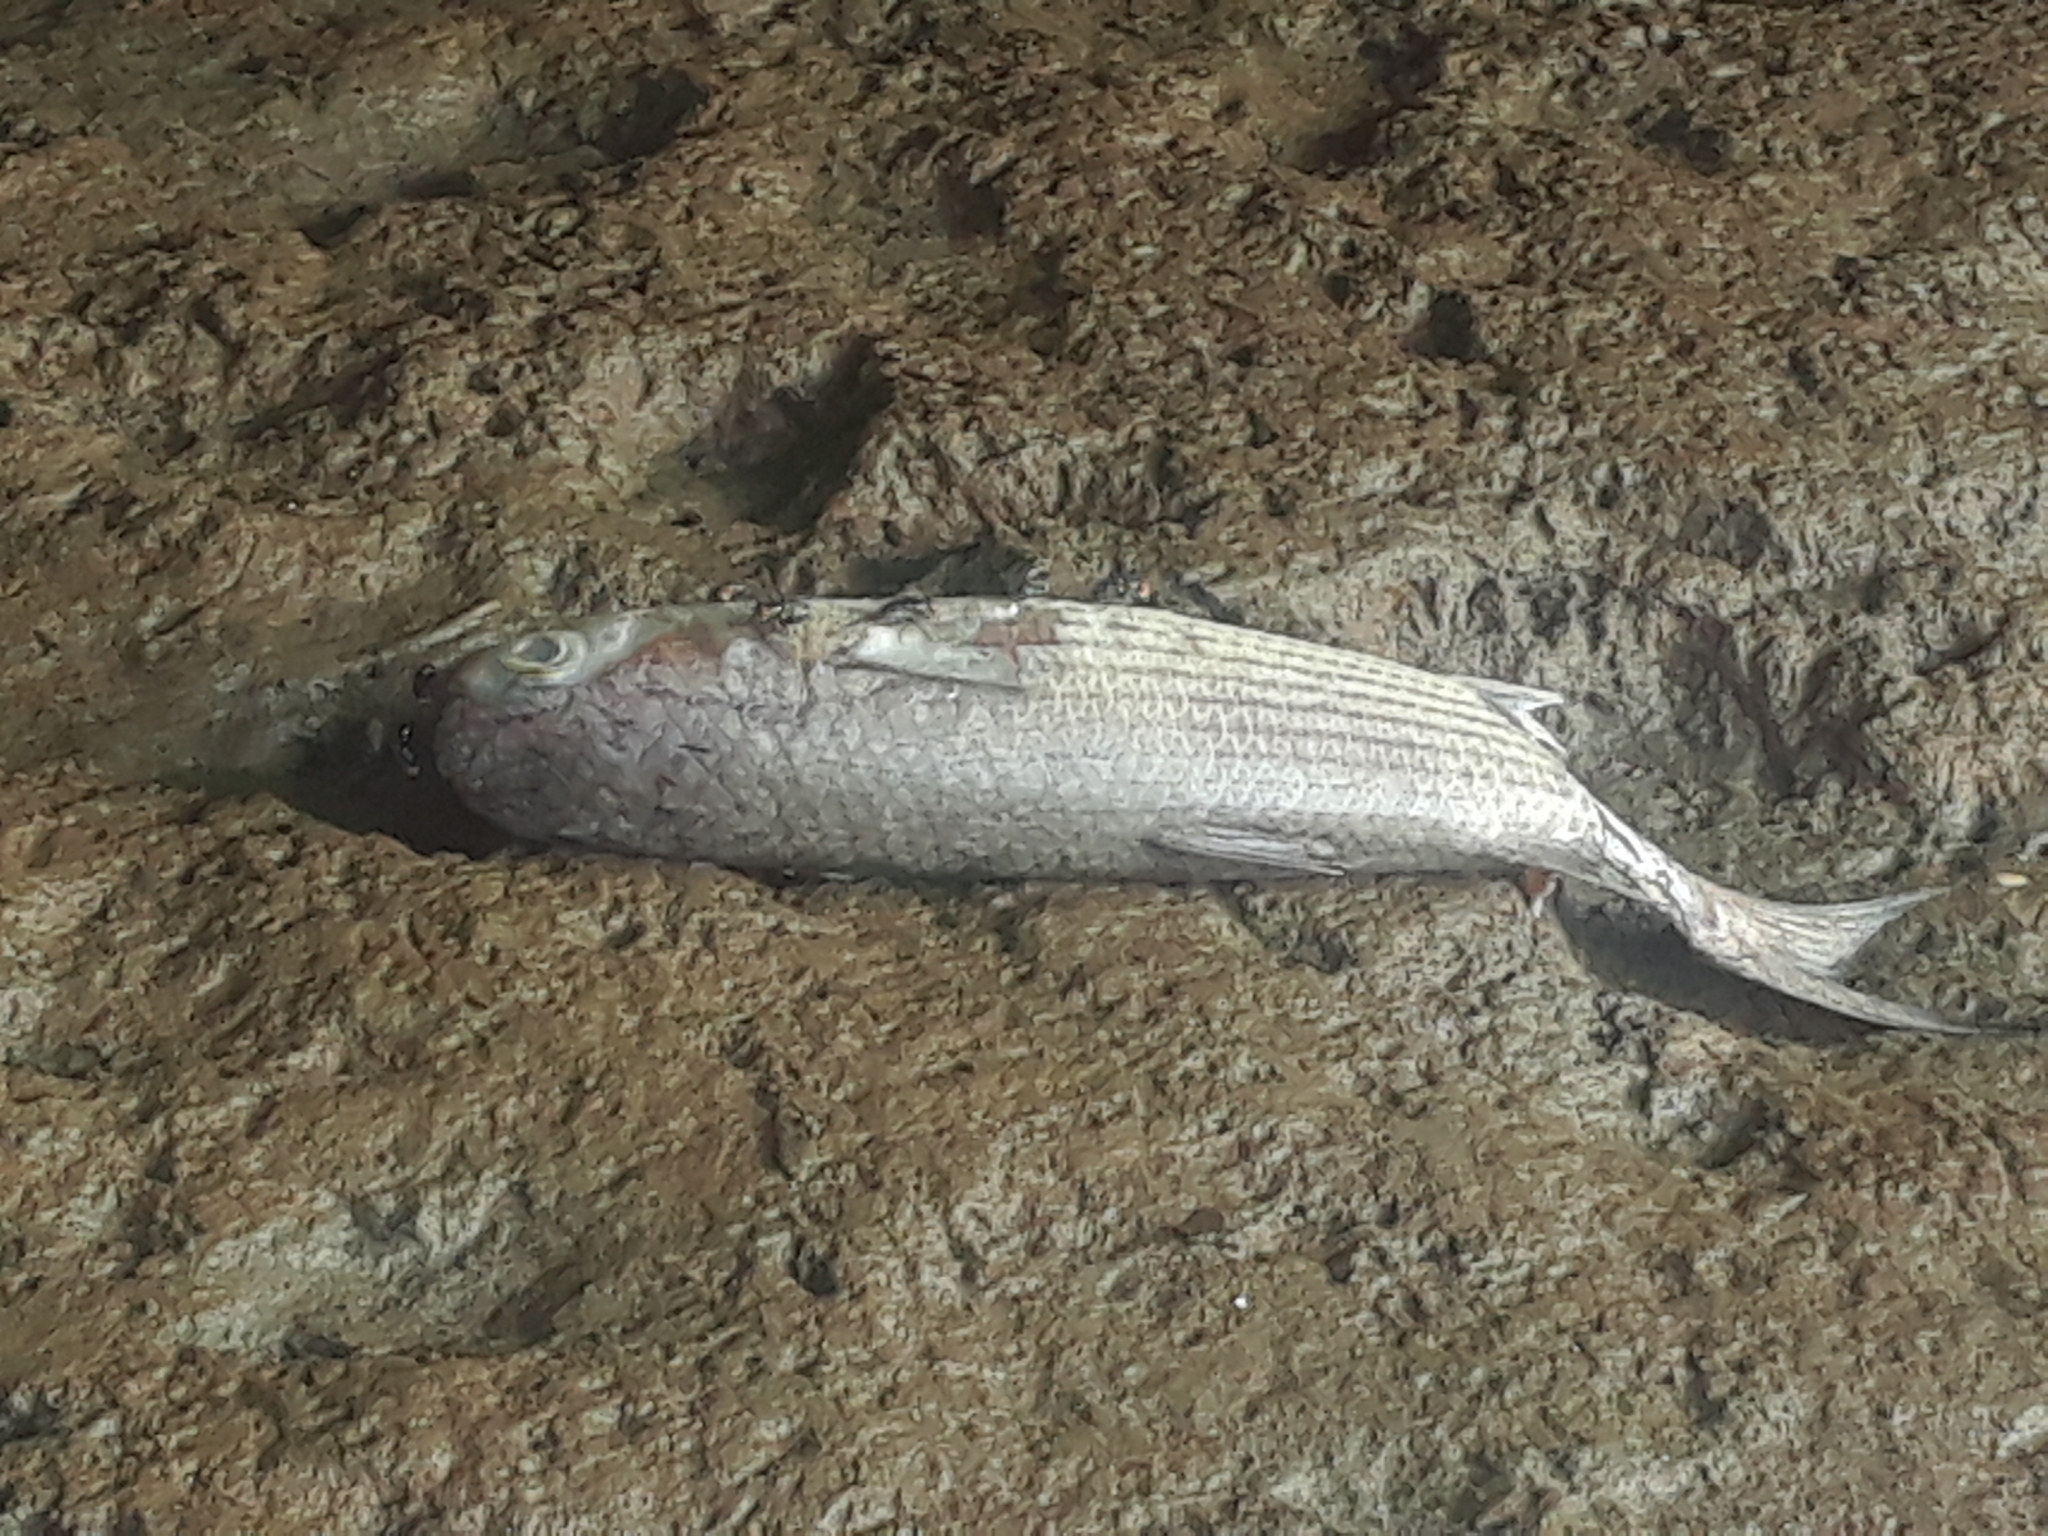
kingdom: Animalia
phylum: Chordata
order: Mugiliformes
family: Mugilidae
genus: Mugil
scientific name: Mugil cephalus
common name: Grey mullet
